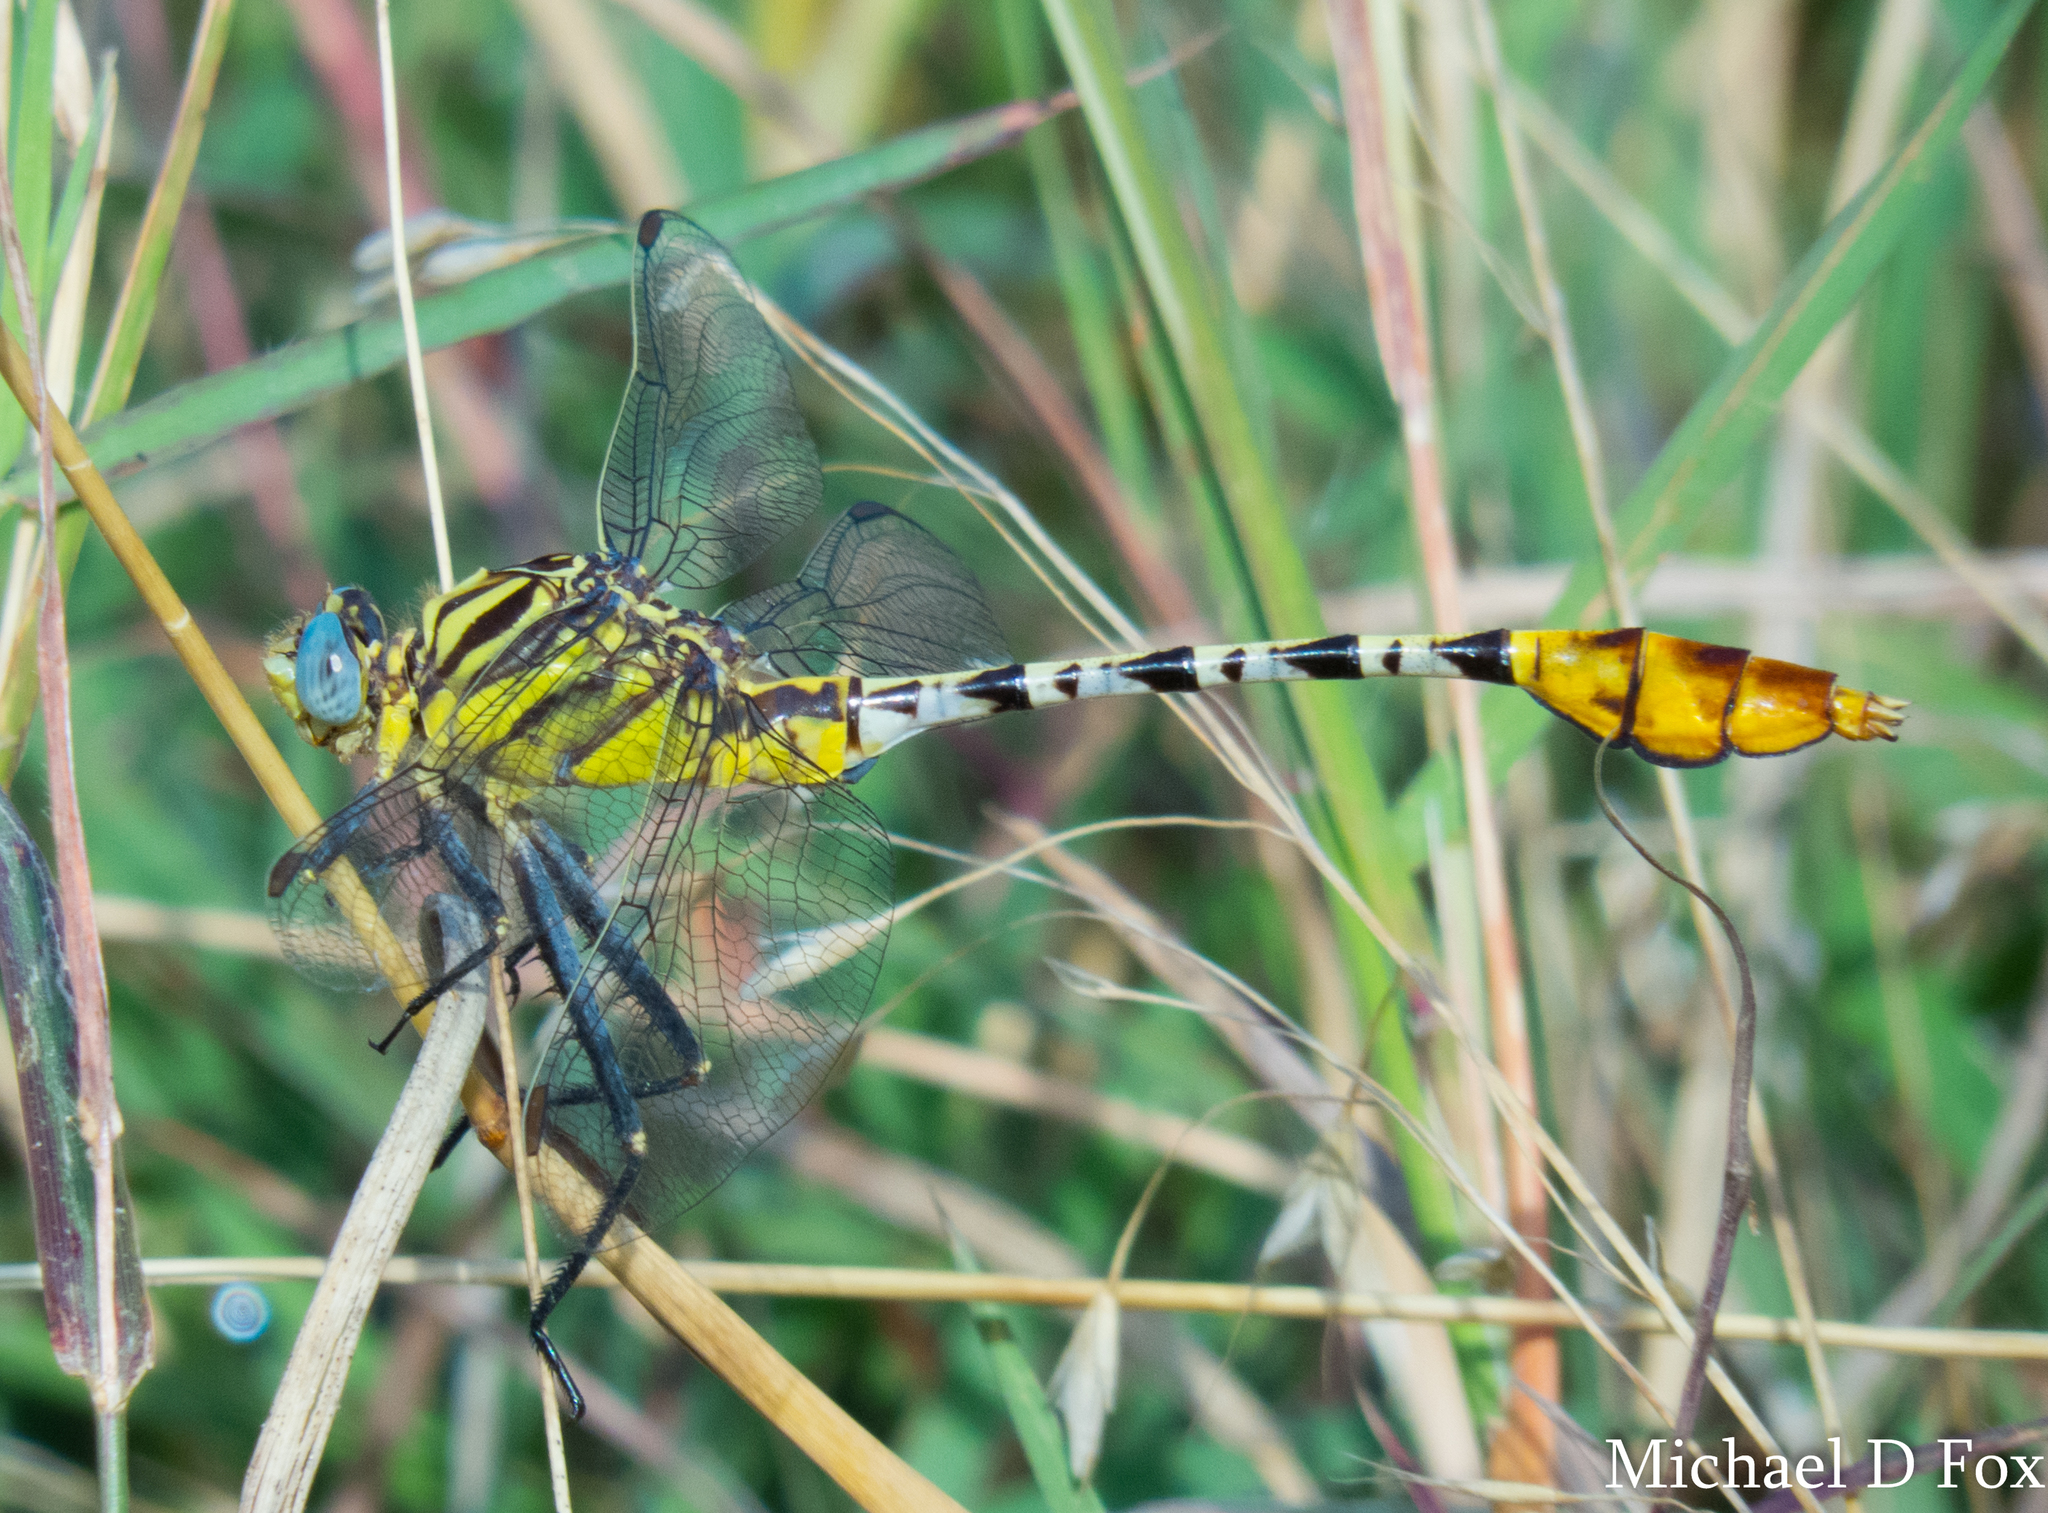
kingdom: Animalia
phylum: Arthropoda
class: Insecta
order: Odonata
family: Gomphidae
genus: Dromogomphus
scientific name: Dromogomphus spoliatus
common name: Flag-tailed spinyleg
